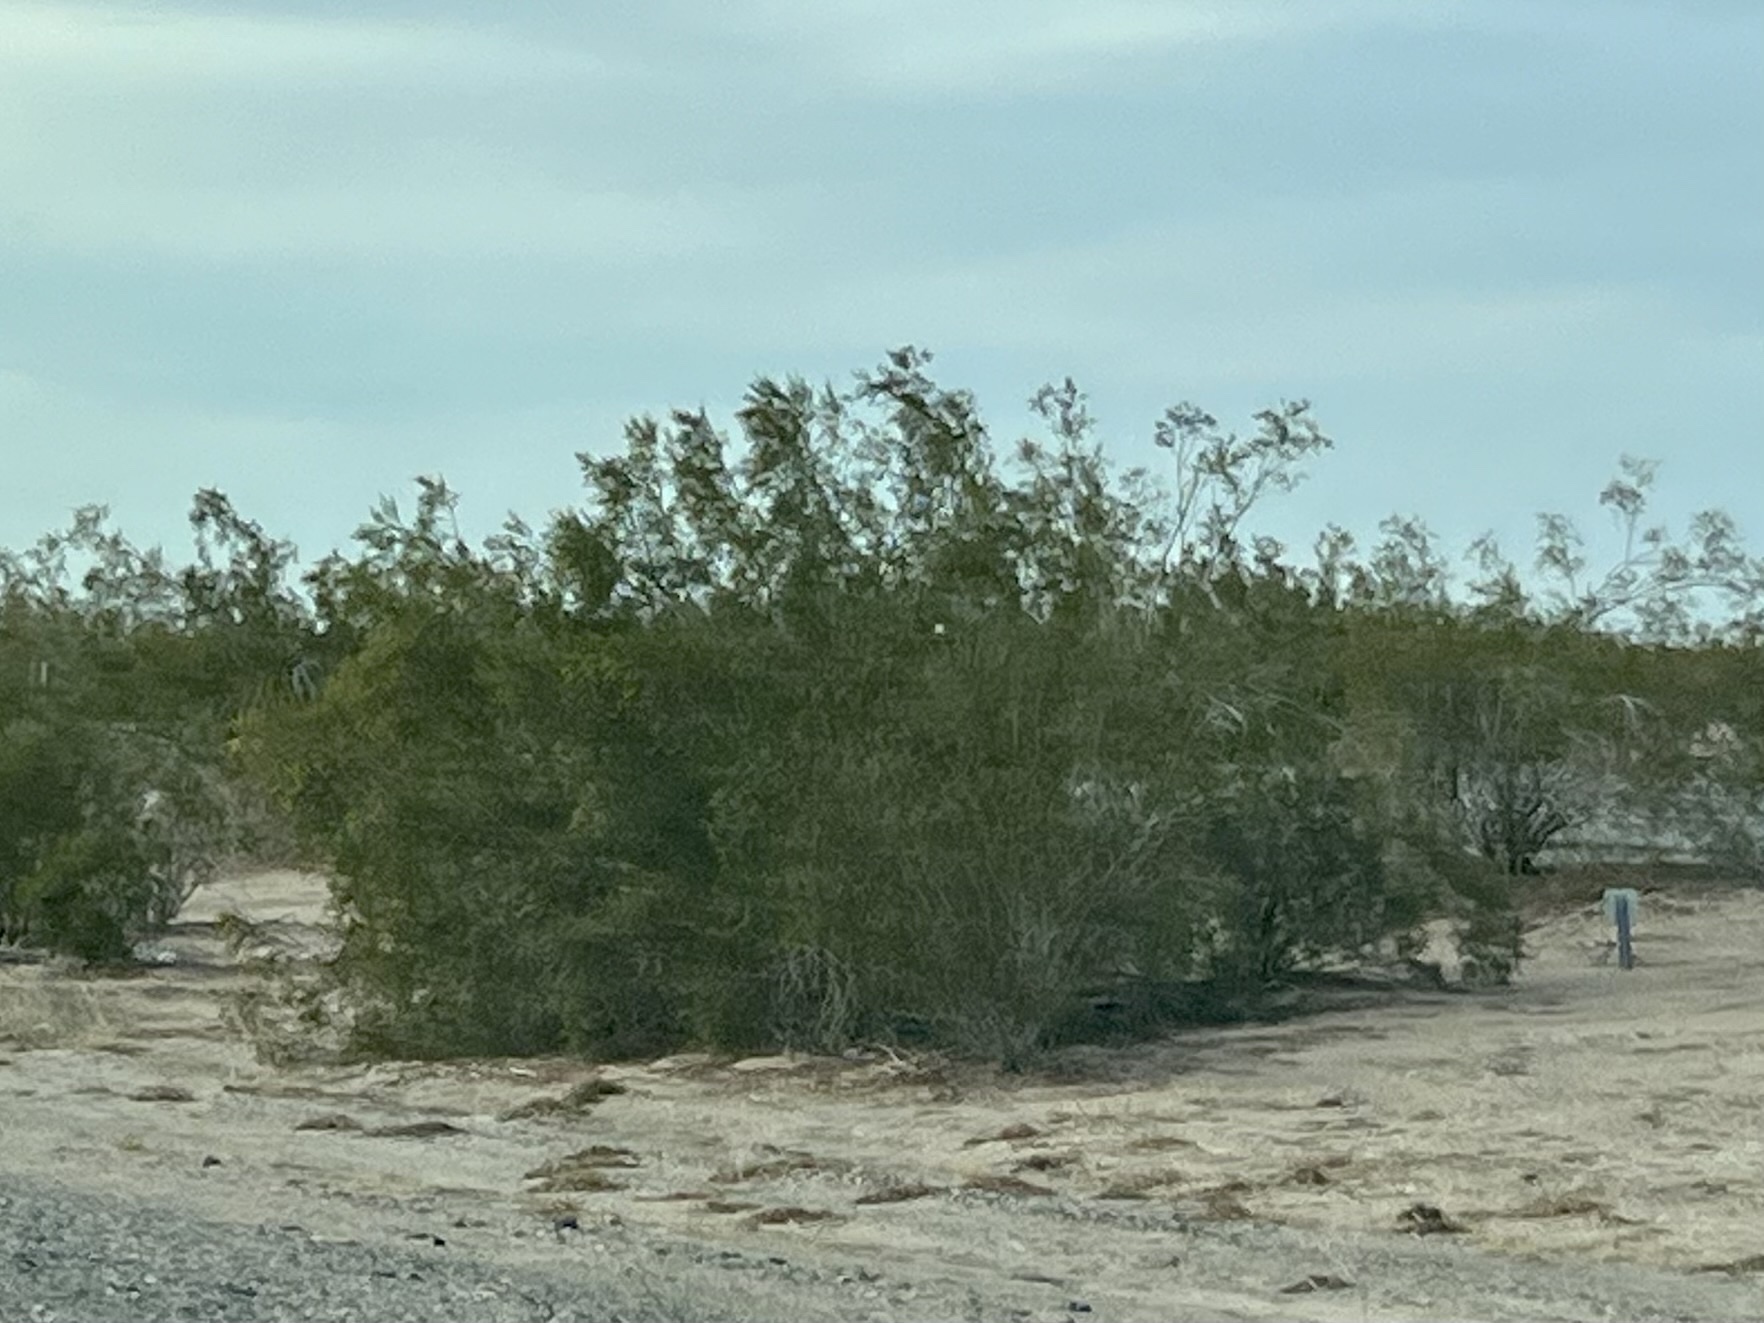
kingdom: Plantae
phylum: Tracheophyta
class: Magnoliopsida
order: Zygophyllales
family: Zygophyllaceae
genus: Larrea
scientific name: Larrea tridentata
